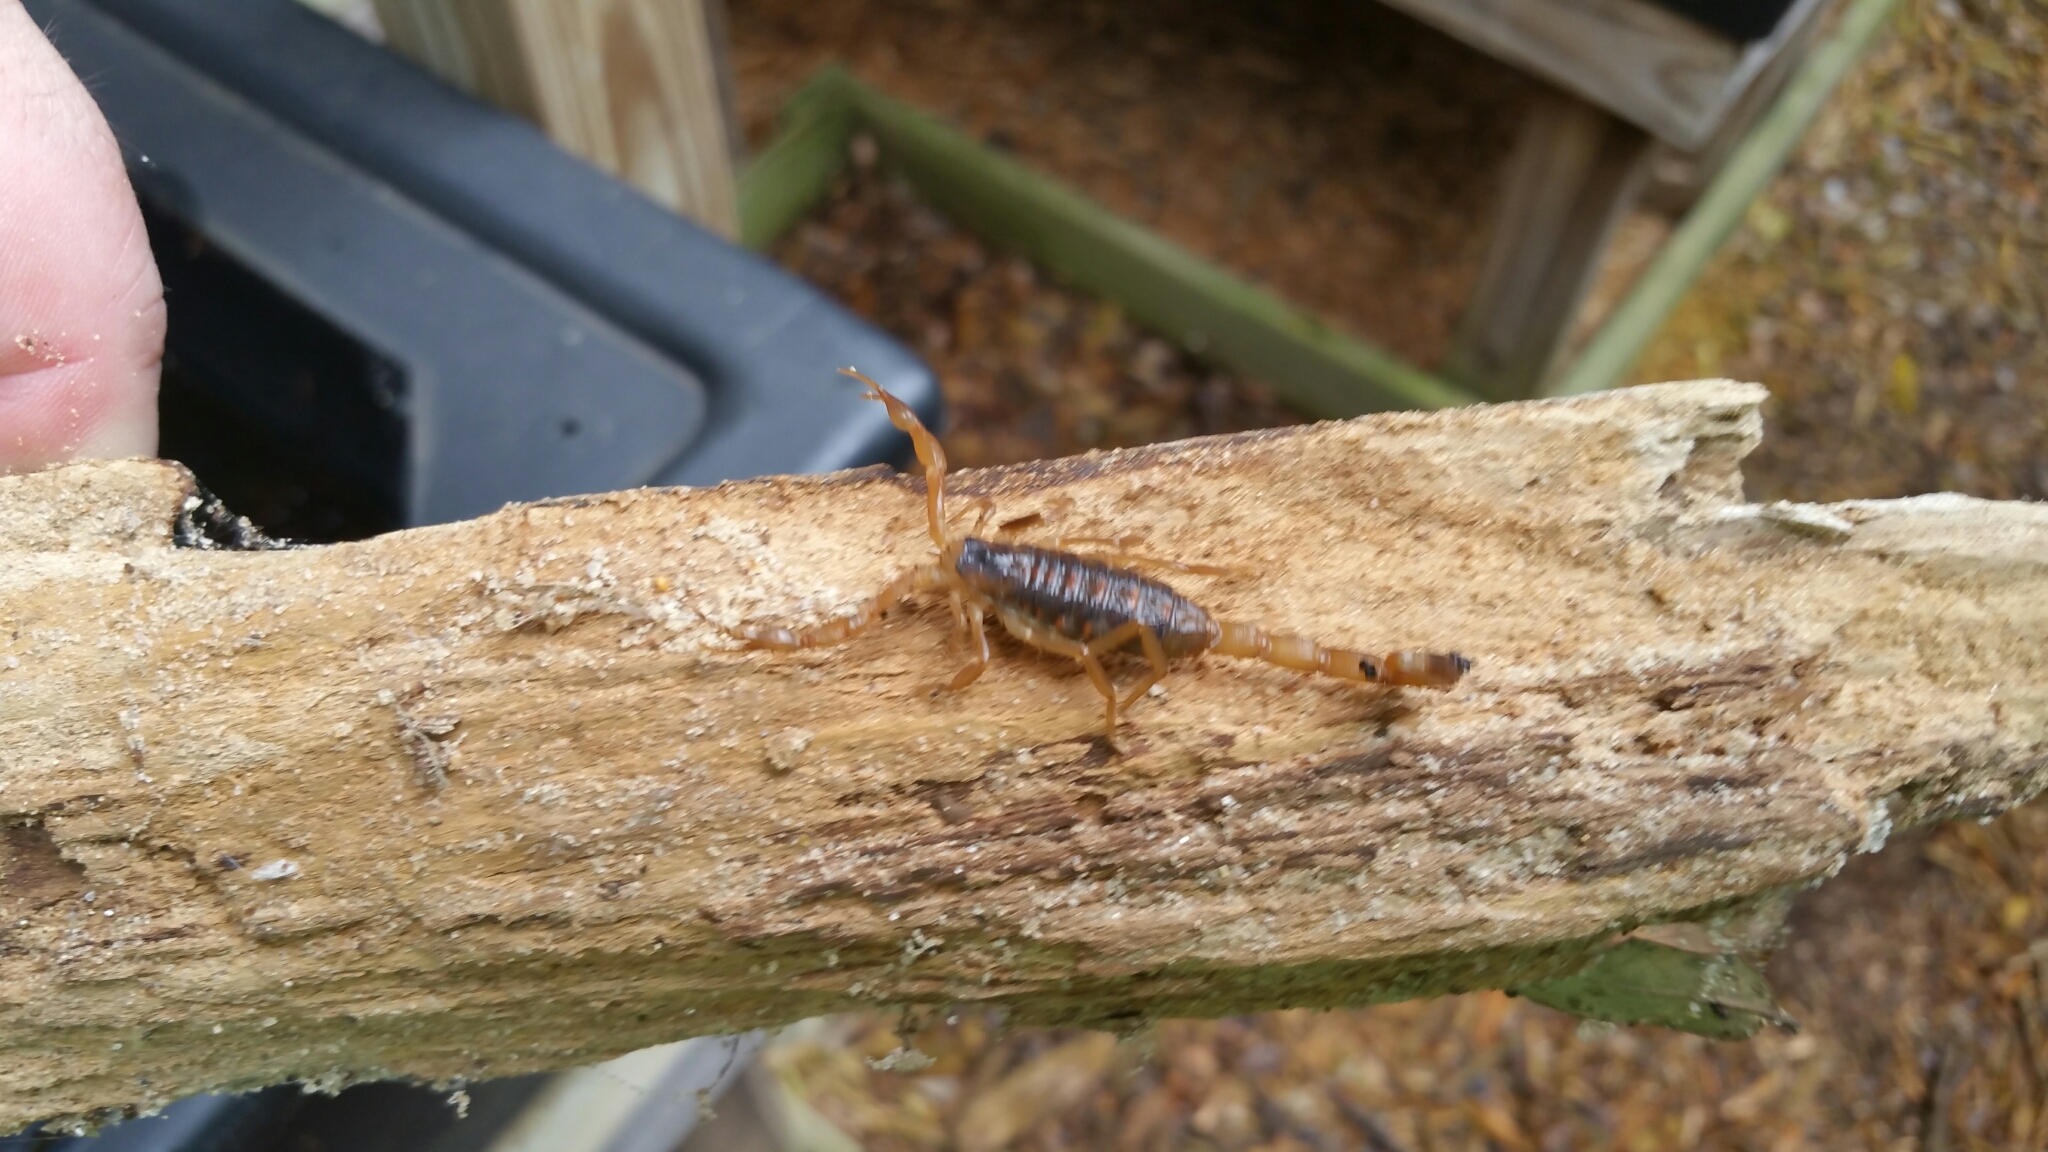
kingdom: Animalia
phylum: Arthropoda
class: Arachnida
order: Scorpiones
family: Buthidae
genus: Centruroides
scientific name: Centruroides vittatus
